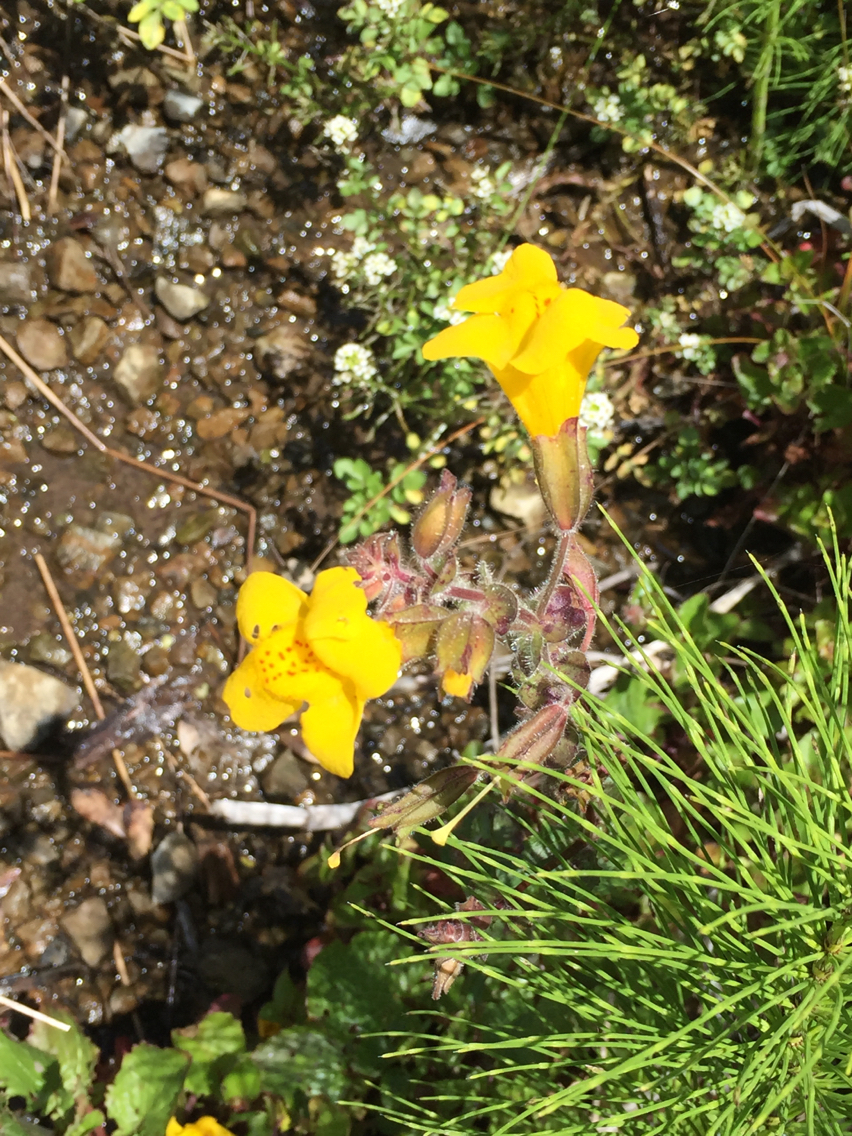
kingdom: Plantae
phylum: Tracheophyta
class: Magnoliopsida
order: Lamiales
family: Phrymaceae
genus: Erythranthe
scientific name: Erythranthe guttata
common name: Monkeyflower
